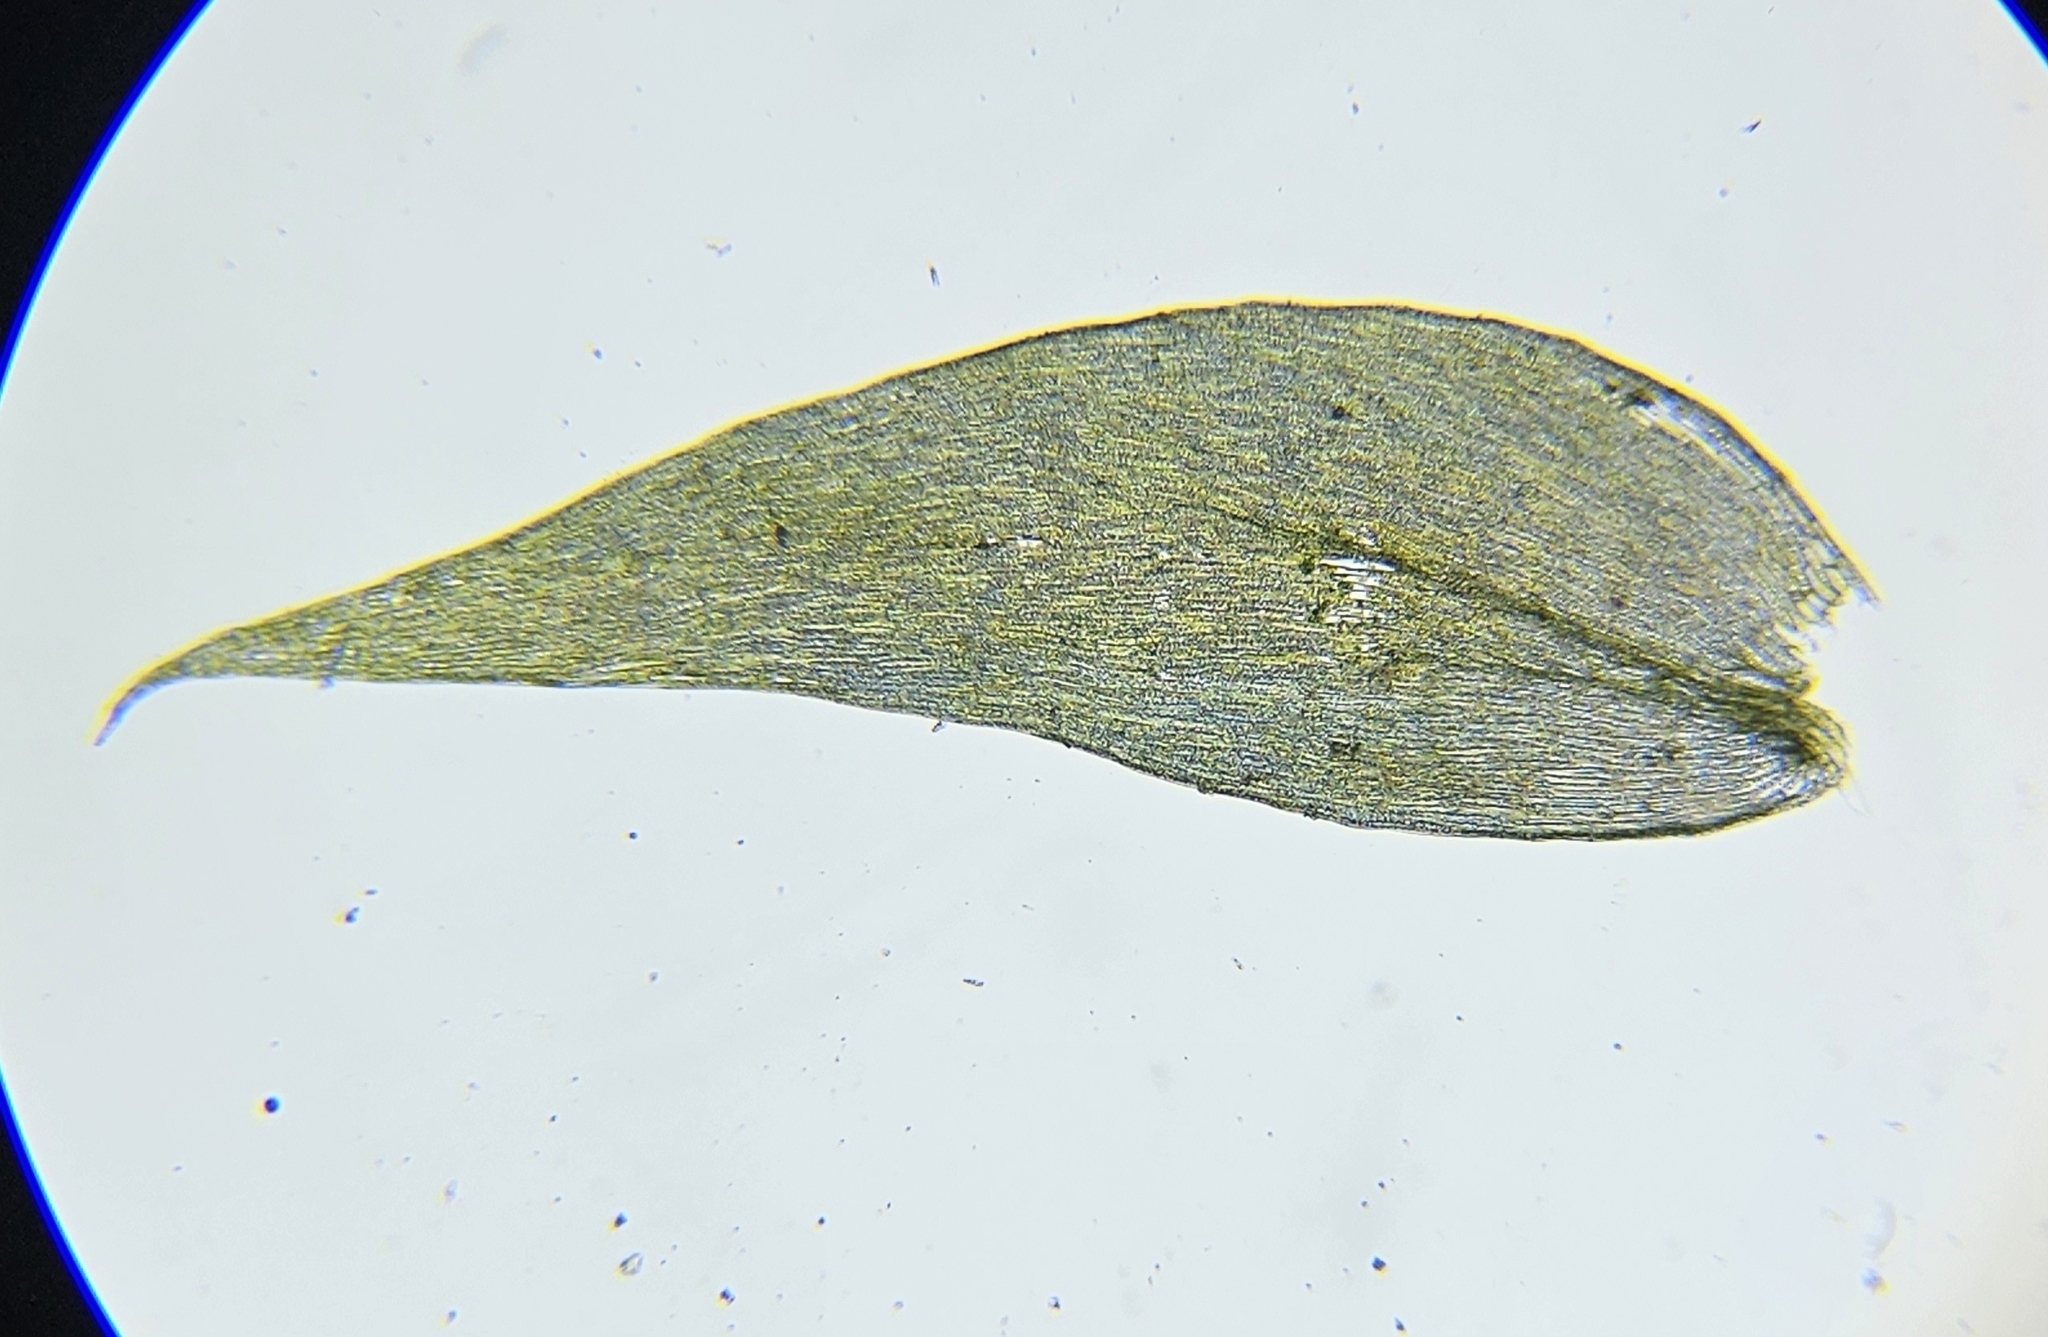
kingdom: Plantae
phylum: Bryophyta
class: Bryopsida
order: Hypnales
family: Plagiotheciaceae
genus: Plagiothecium
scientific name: Plagiothecium succulentum
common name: Juicy silk-moss
